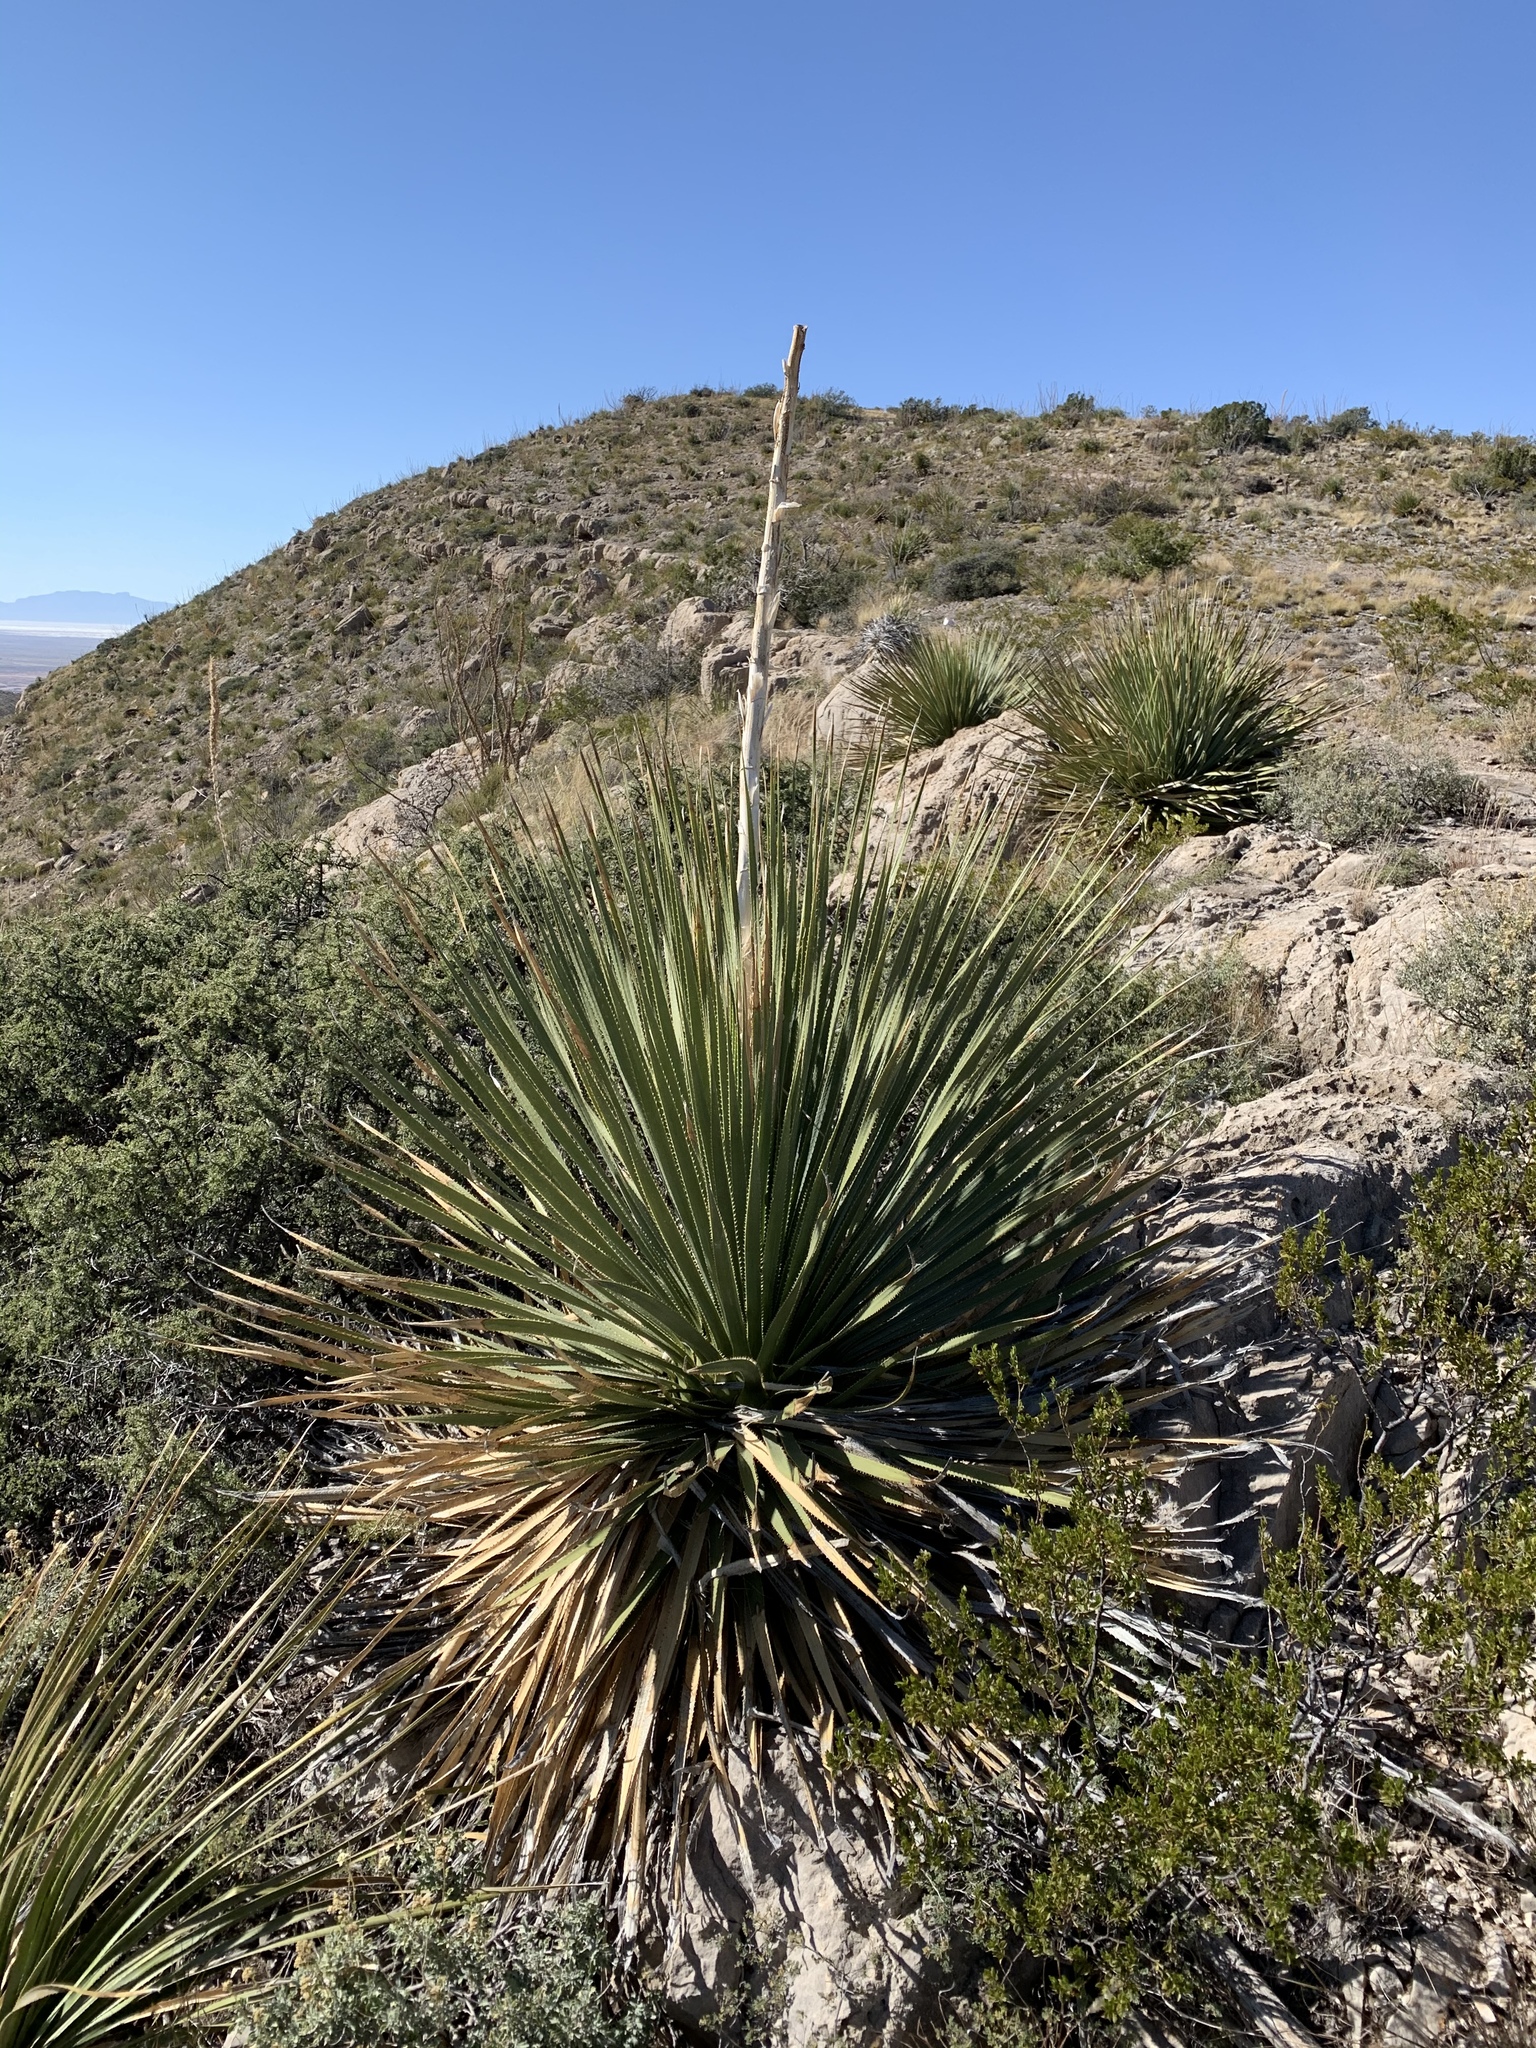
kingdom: Plantae
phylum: Tracheophyta
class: Liliopsida
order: Asparagales
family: Asparagaceae
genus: Dasylirion
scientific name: Dasylirion wheeleri
